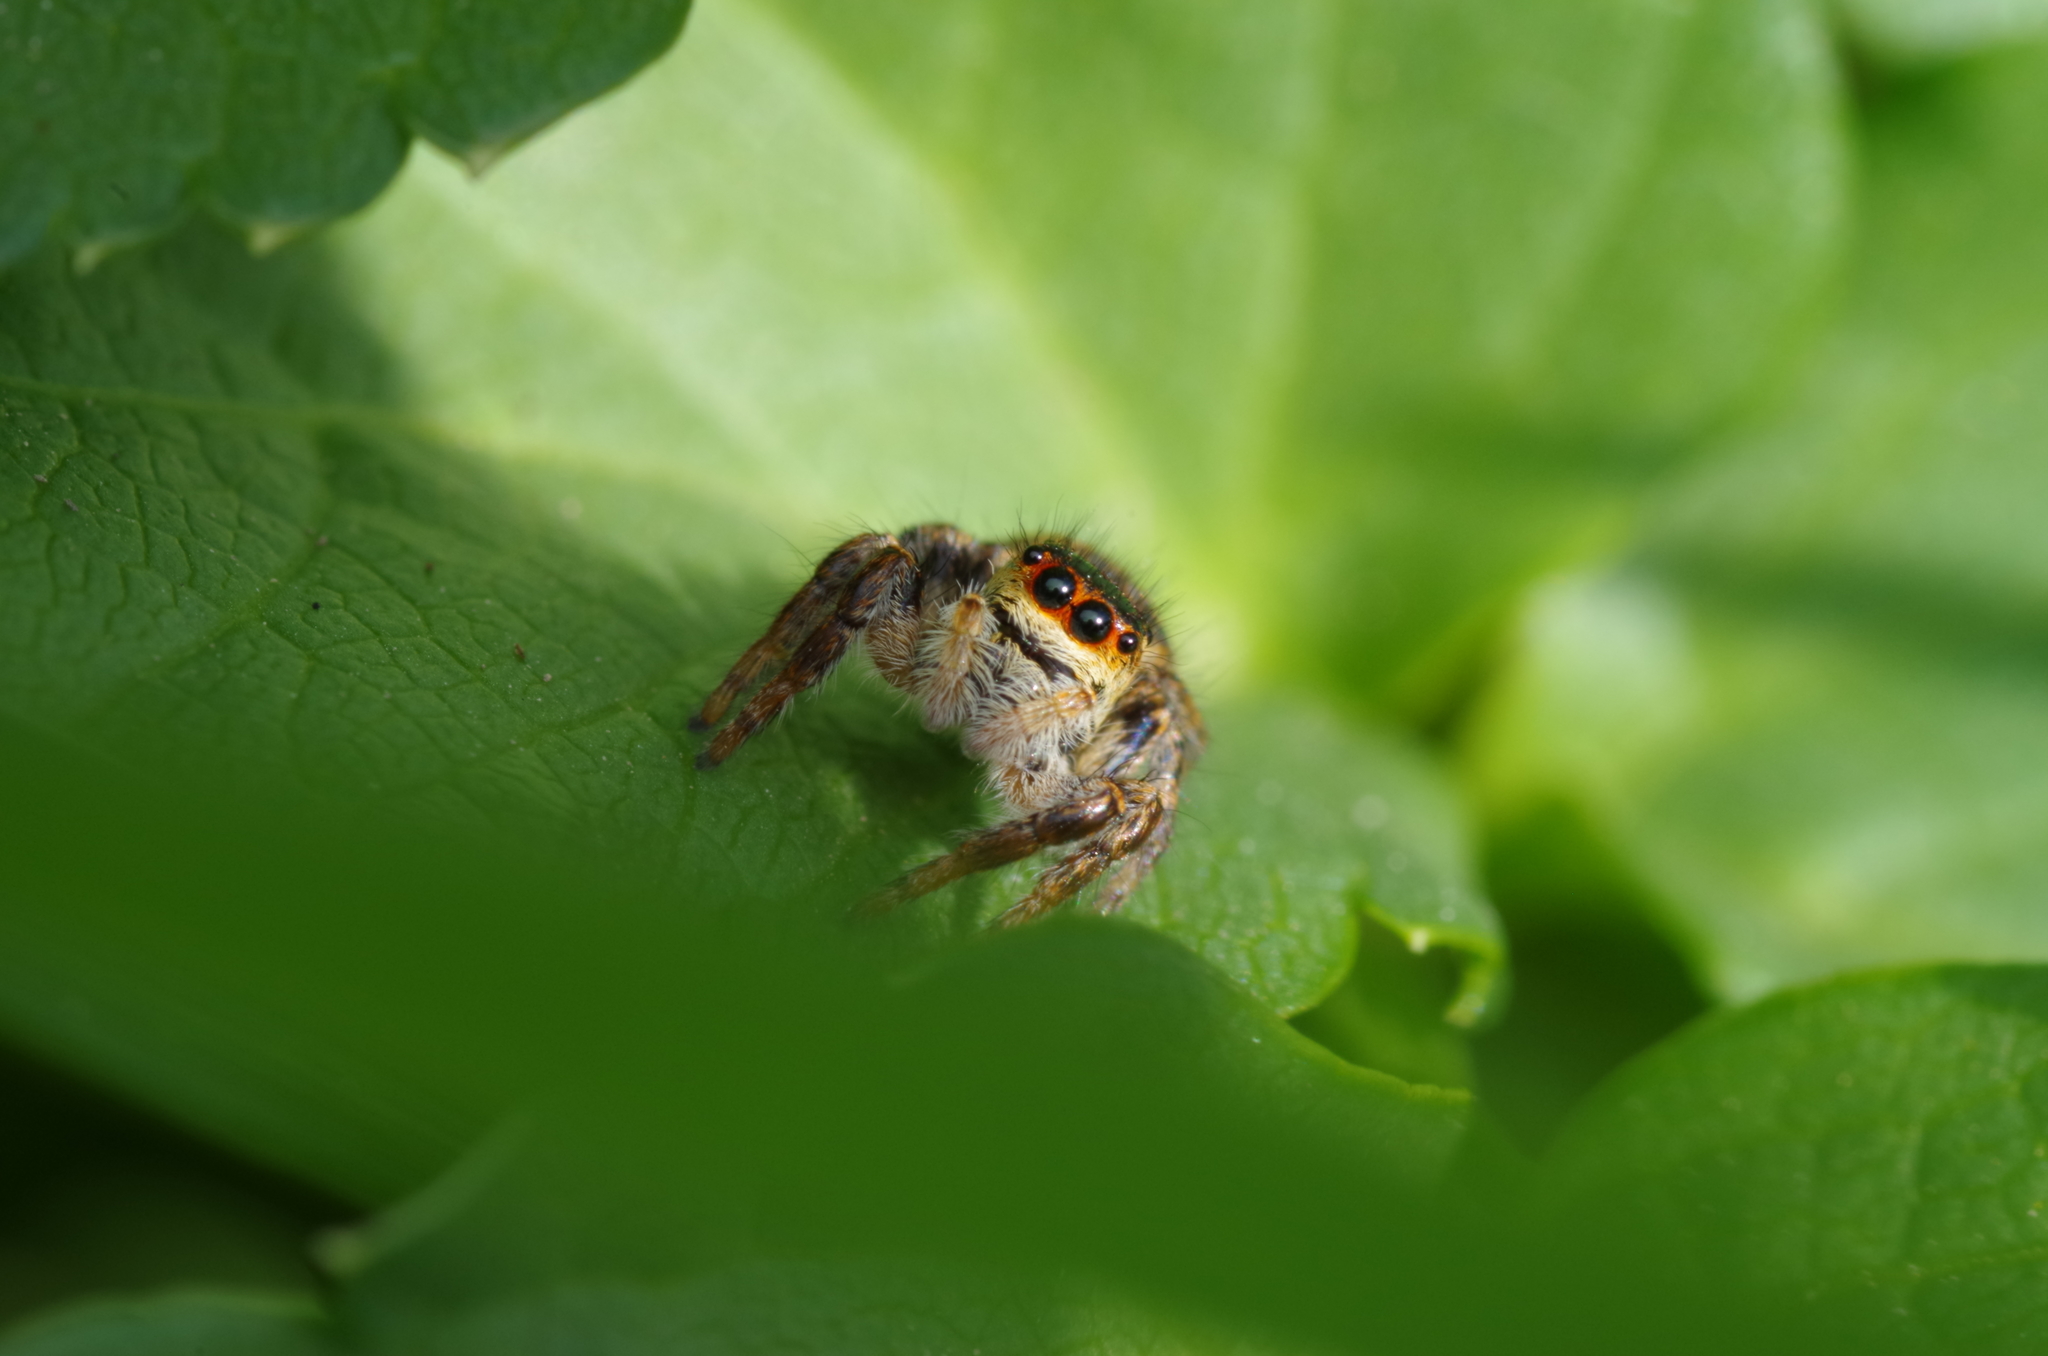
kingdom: Animalia
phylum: Arthropoda
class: Arachnida
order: Araneae
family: Salticidae
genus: Carrhotus
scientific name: Carrhotus xanthogramma
